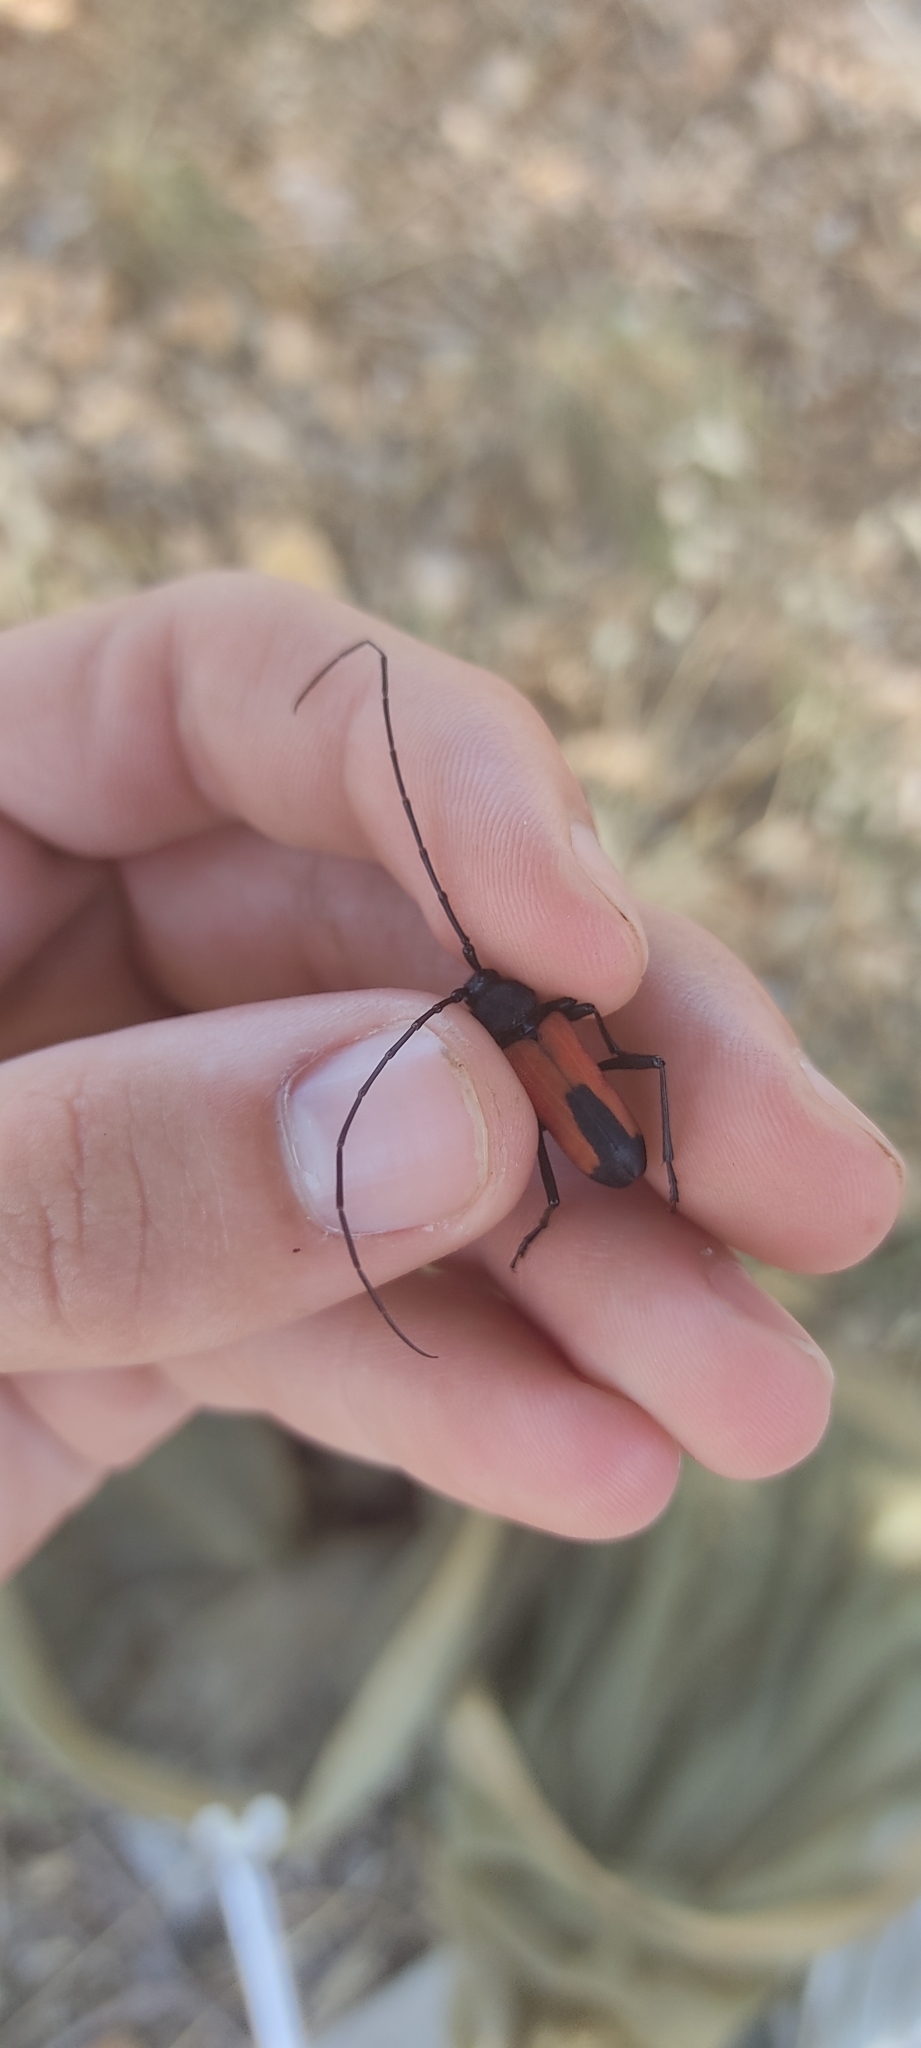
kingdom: Animalia
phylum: Arthropoda
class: Insecta
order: Coleoptera
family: Cerambycidae
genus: Purpuricenus
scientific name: Purpuricenus budensis
